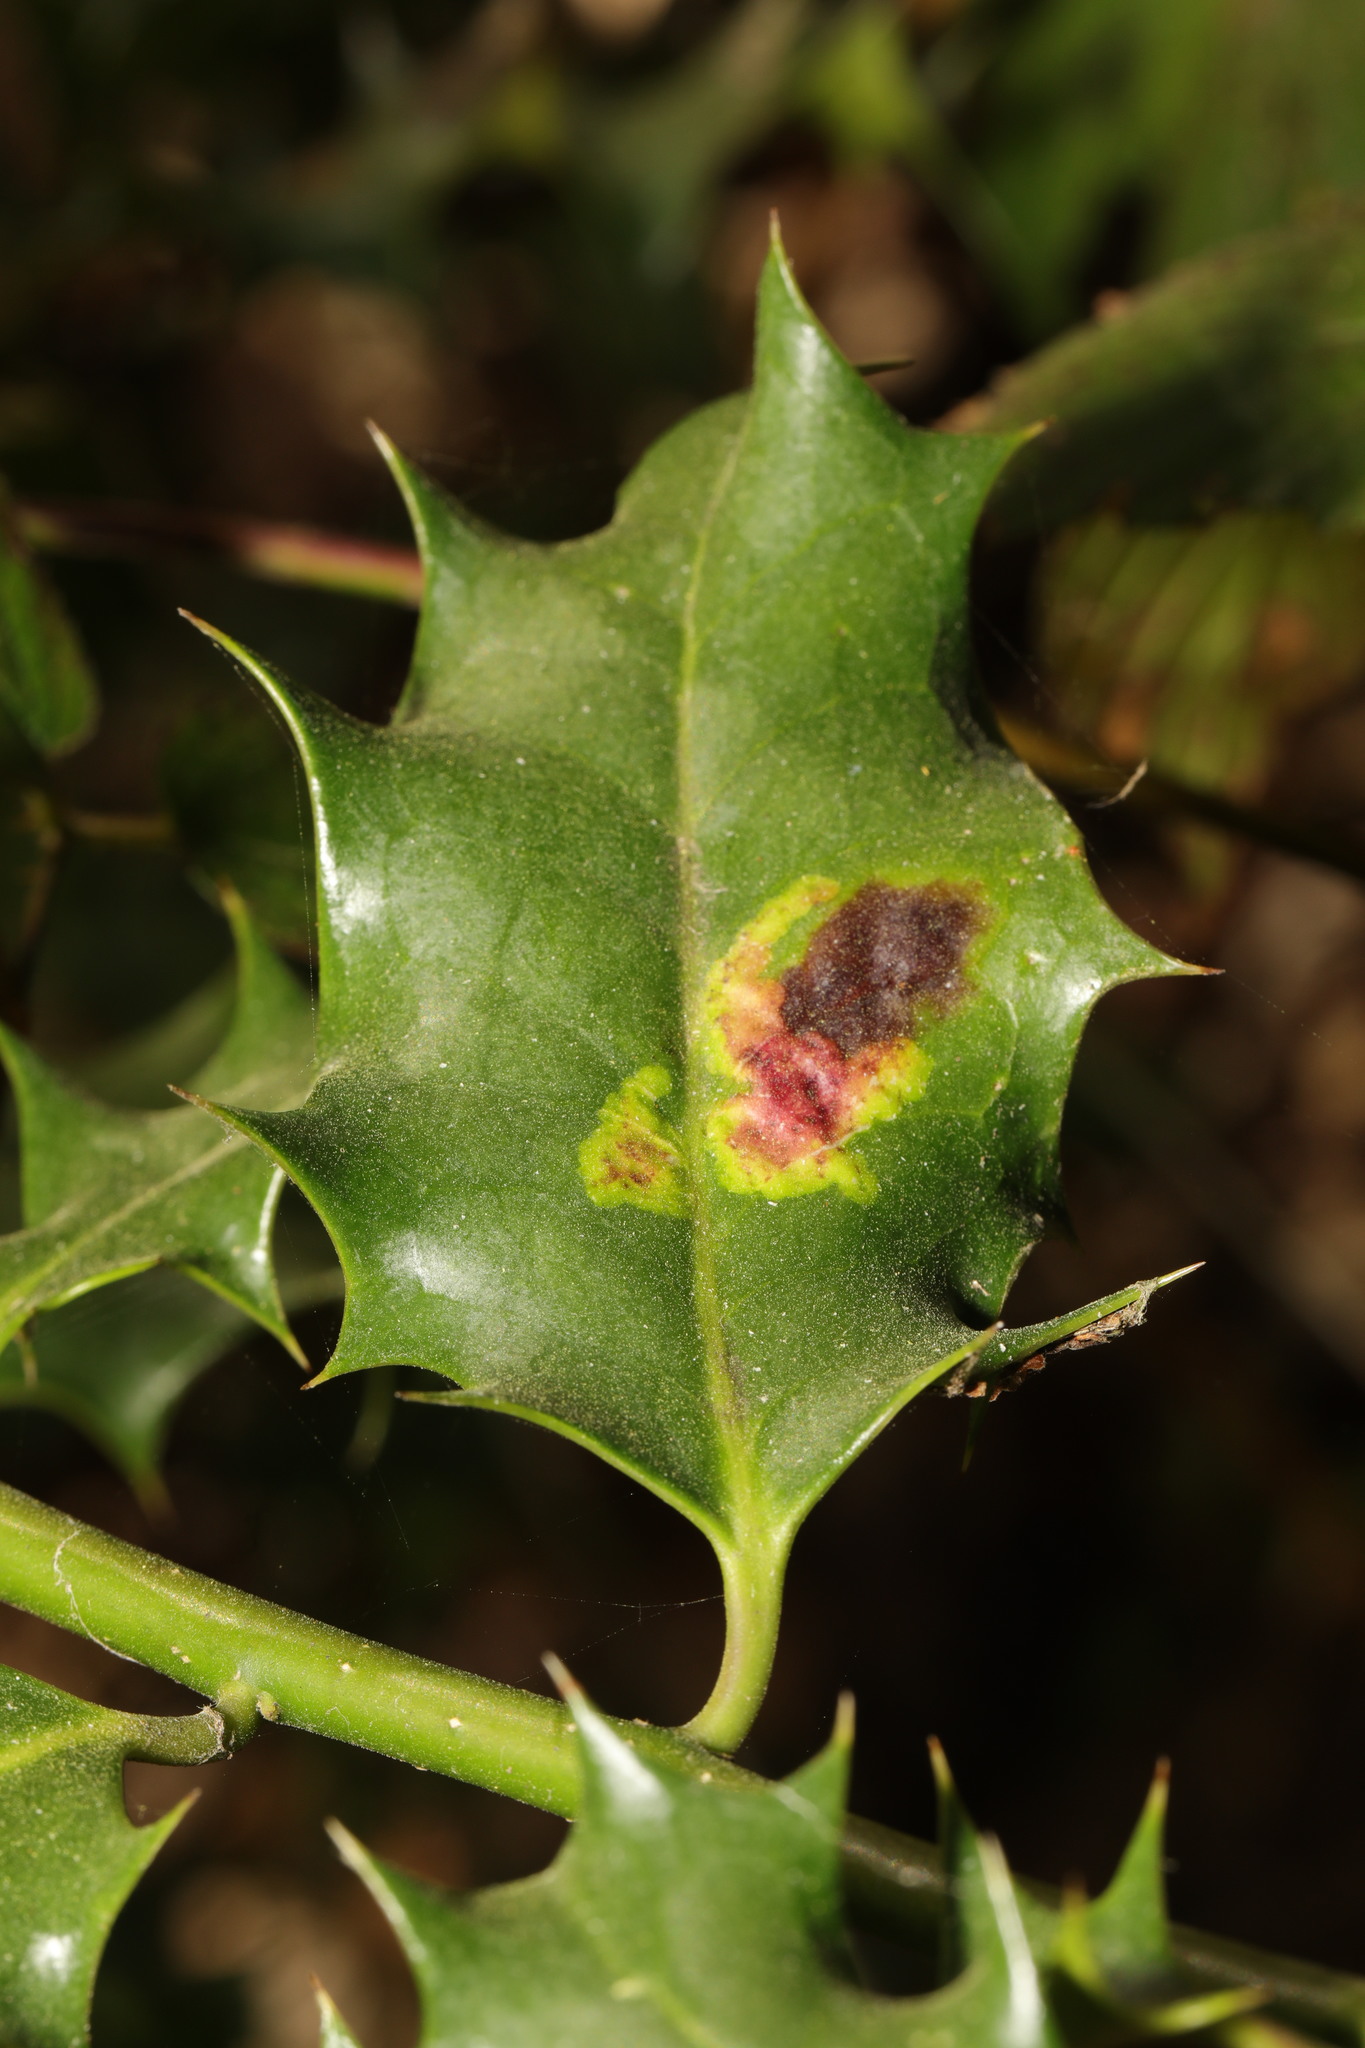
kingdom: Animalia
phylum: Arthropoda
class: Insecta
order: Diptera
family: Agromyzidae
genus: Phytomyza
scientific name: Phytomyza ilicis
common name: Holly leafminer
